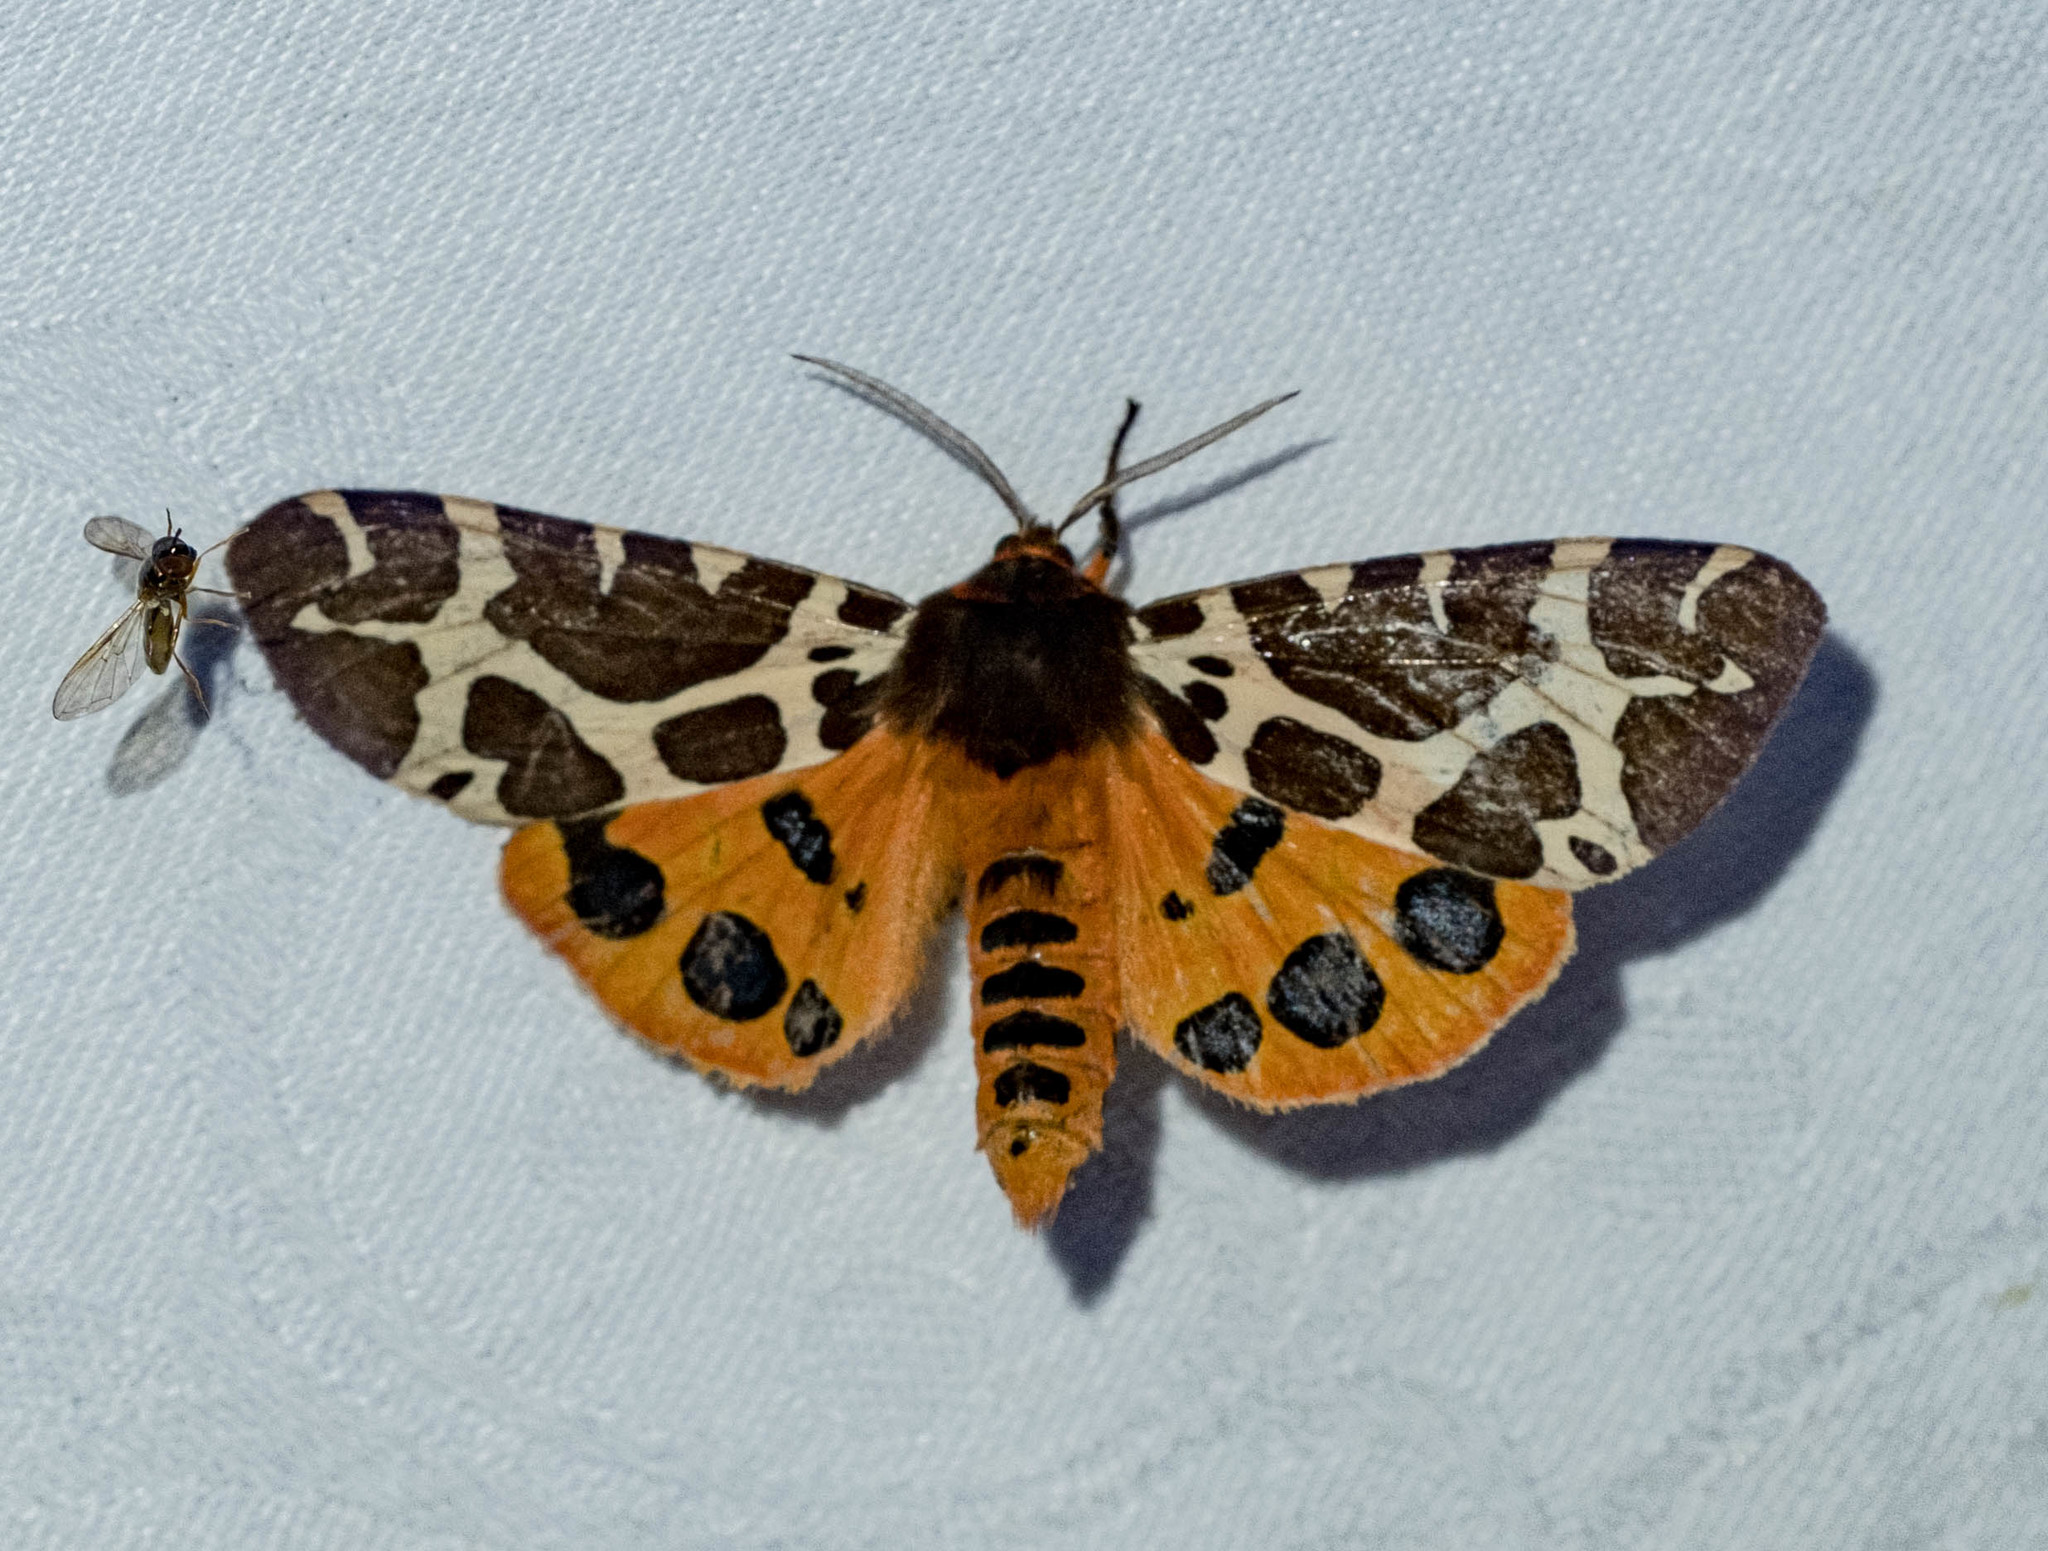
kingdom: Animalia
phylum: Arthropoda
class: Insecta
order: Lepidoptera
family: Erebidae
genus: Arctia
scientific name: Arctia caja
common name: Garden tiger
